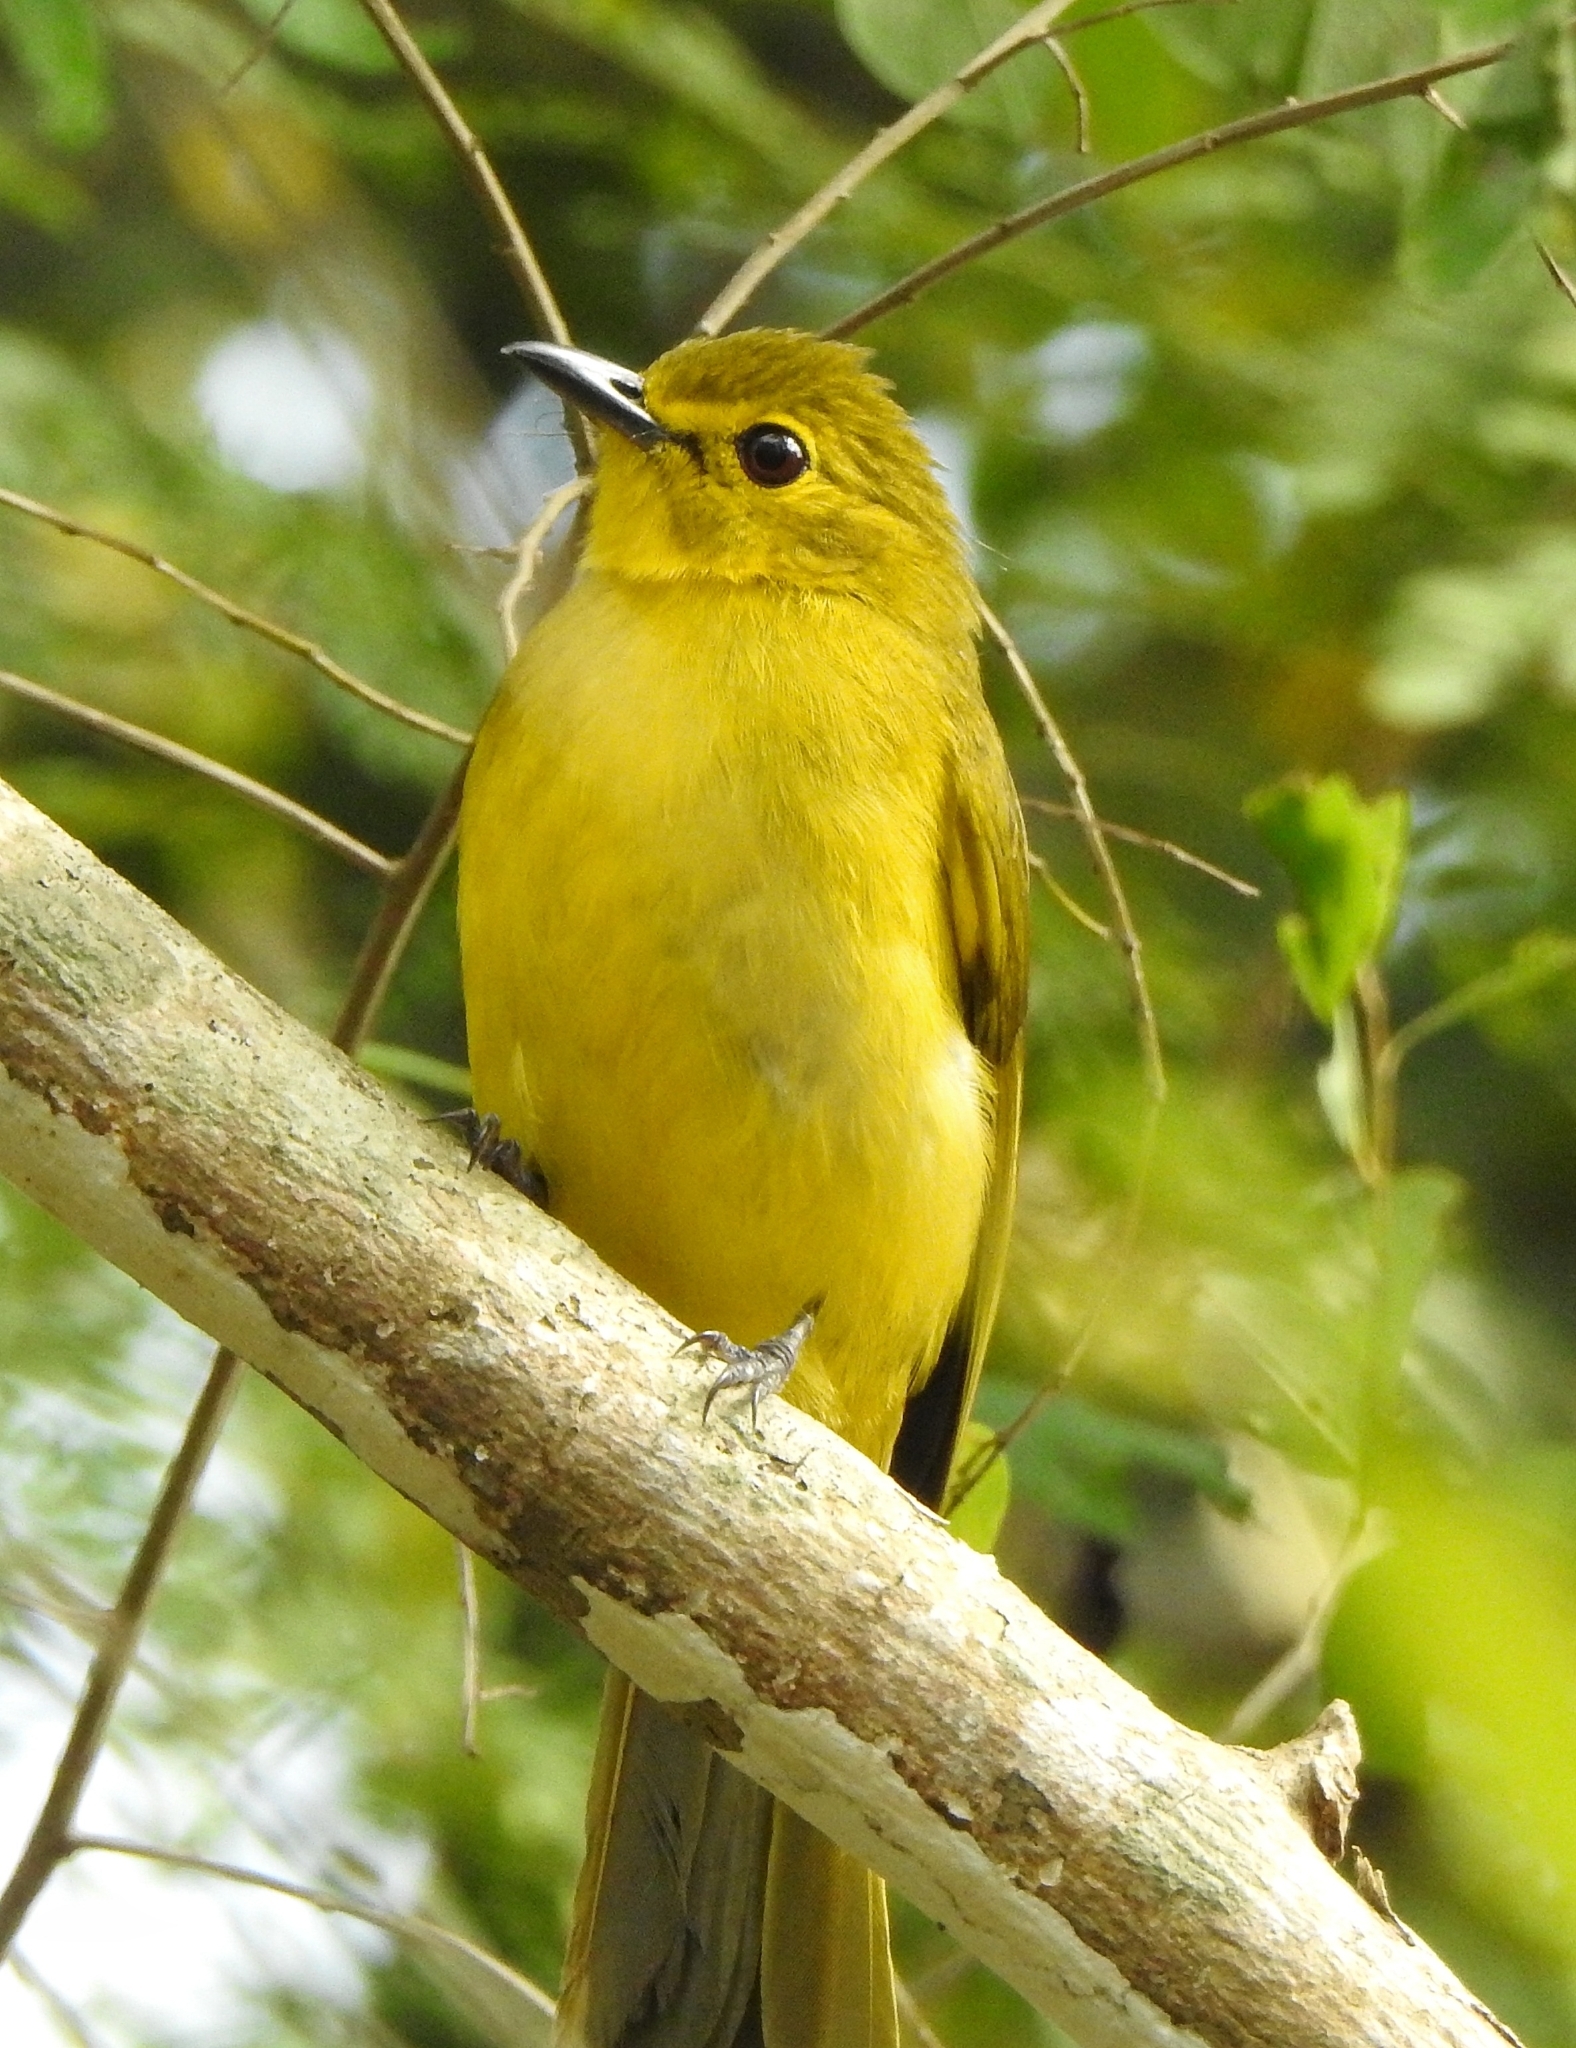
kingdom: Animalia
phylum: Chordata
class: Aves
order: Passeriformes
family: Pycnonotidae
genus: Acritillas
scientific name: Acritillas indica
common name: Yellow-browed bulbul
